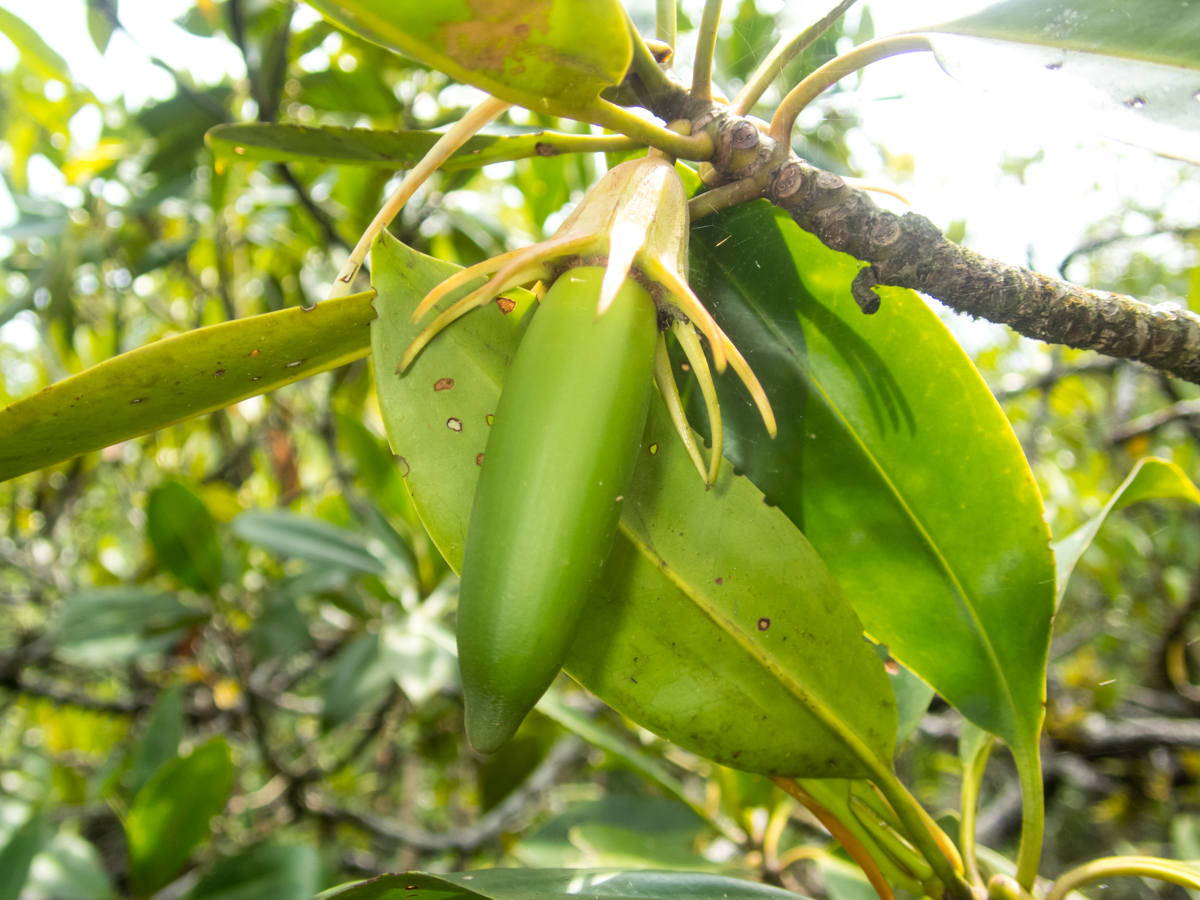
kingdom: Plantae
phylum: Tracheophyta
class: Magnoliopsida
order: Malpighiales
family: Rhizophoraceae
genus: Bruguiera
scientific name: Bruguiera sexangula
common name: Oriental mangrove
